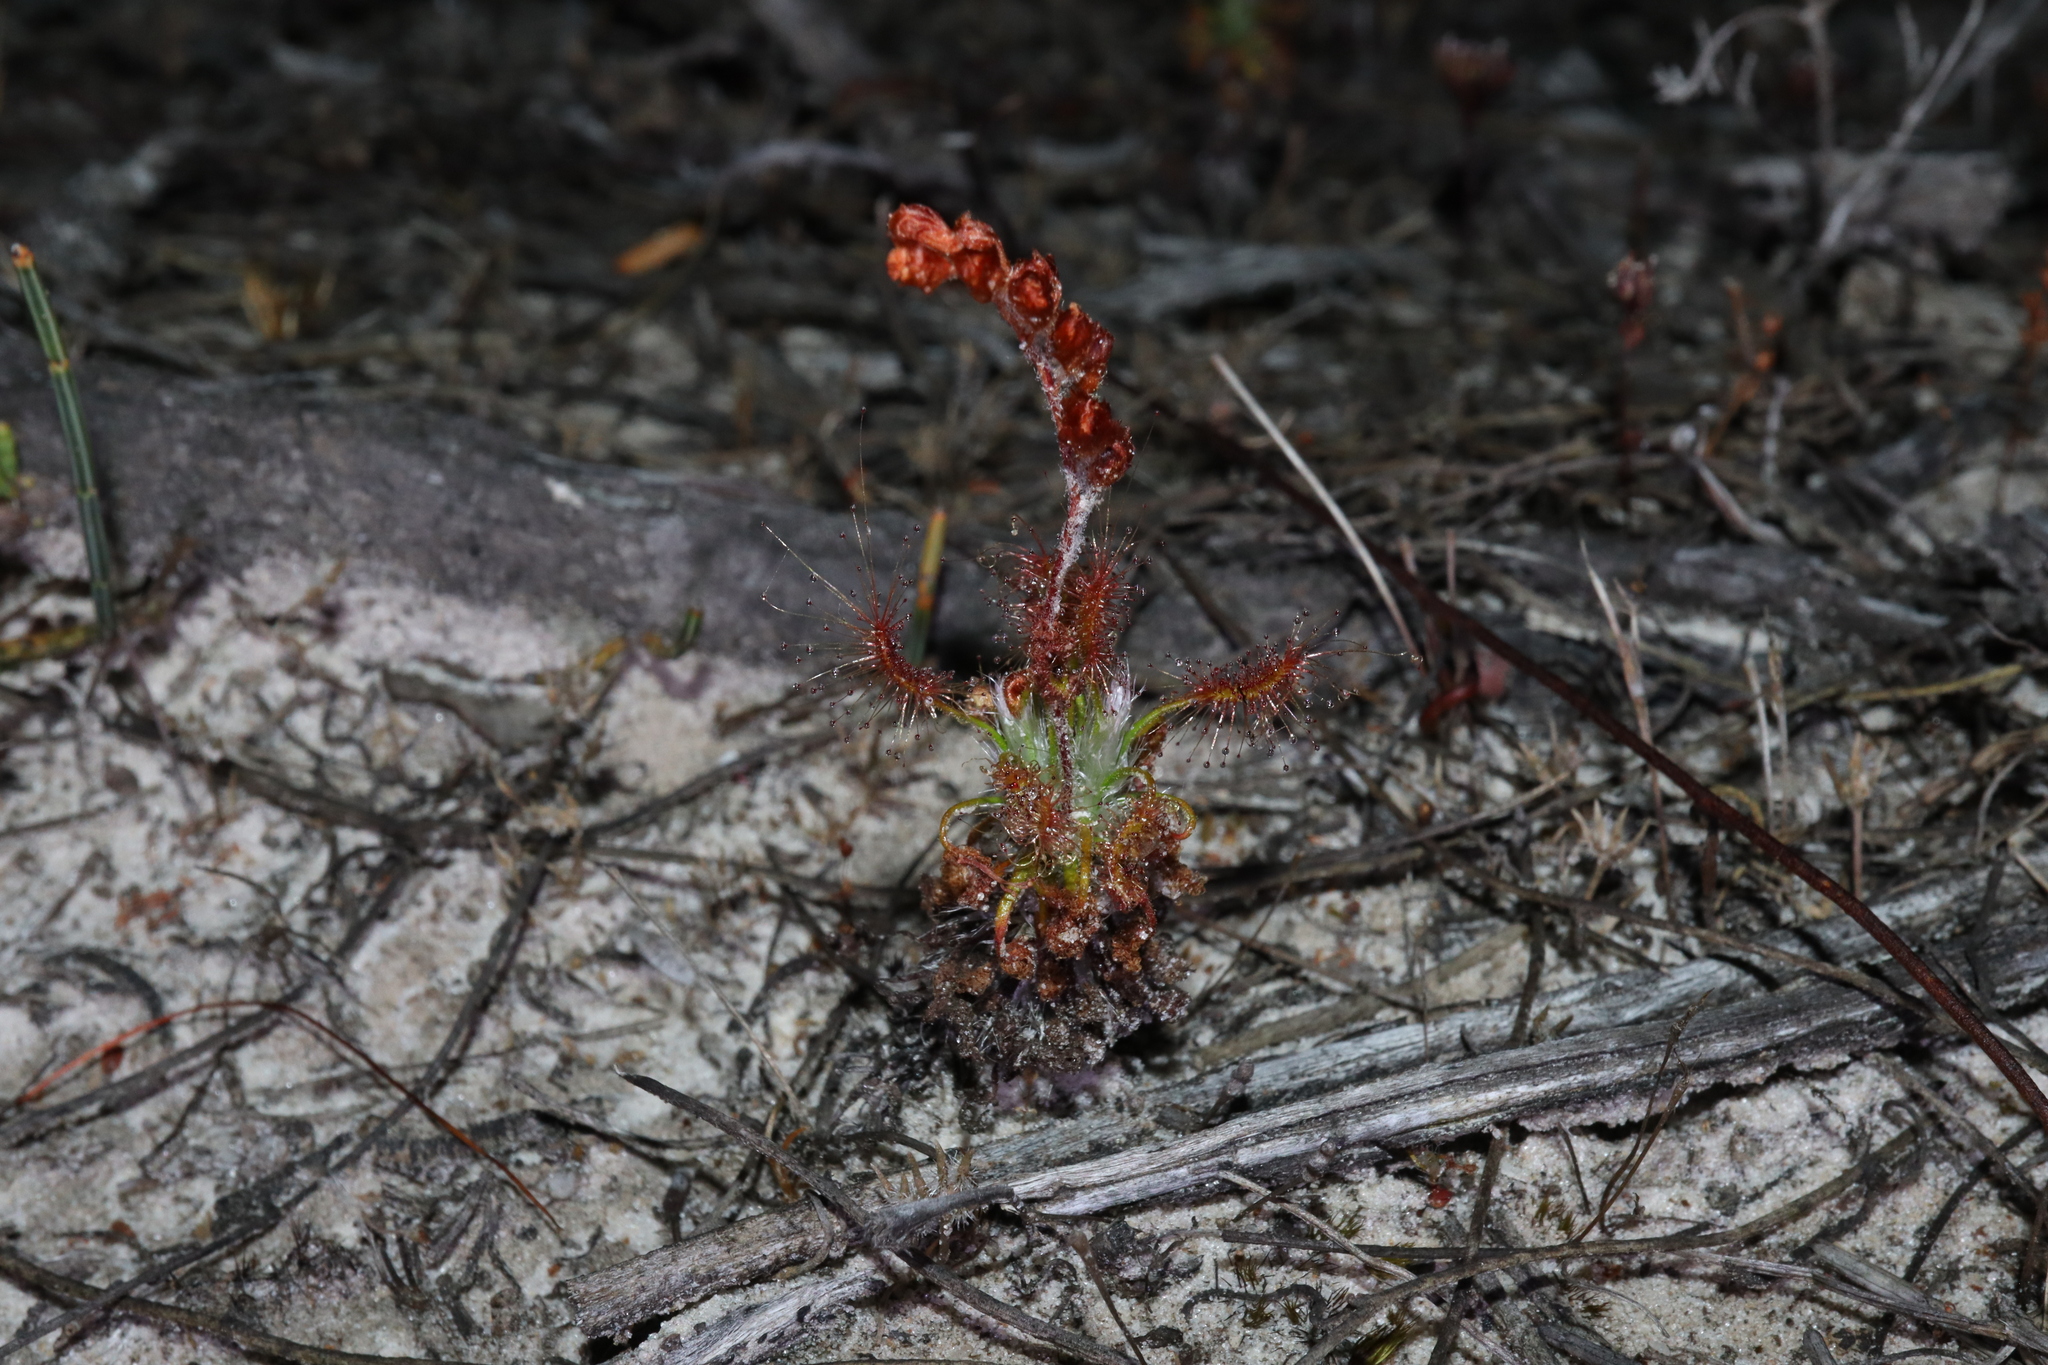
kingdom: Plantae
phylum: Tracheophyta
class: Magnoliopsida
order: Caryophyllales
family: Droseraceae
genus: Drosera
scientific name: Drosera scorpioides
